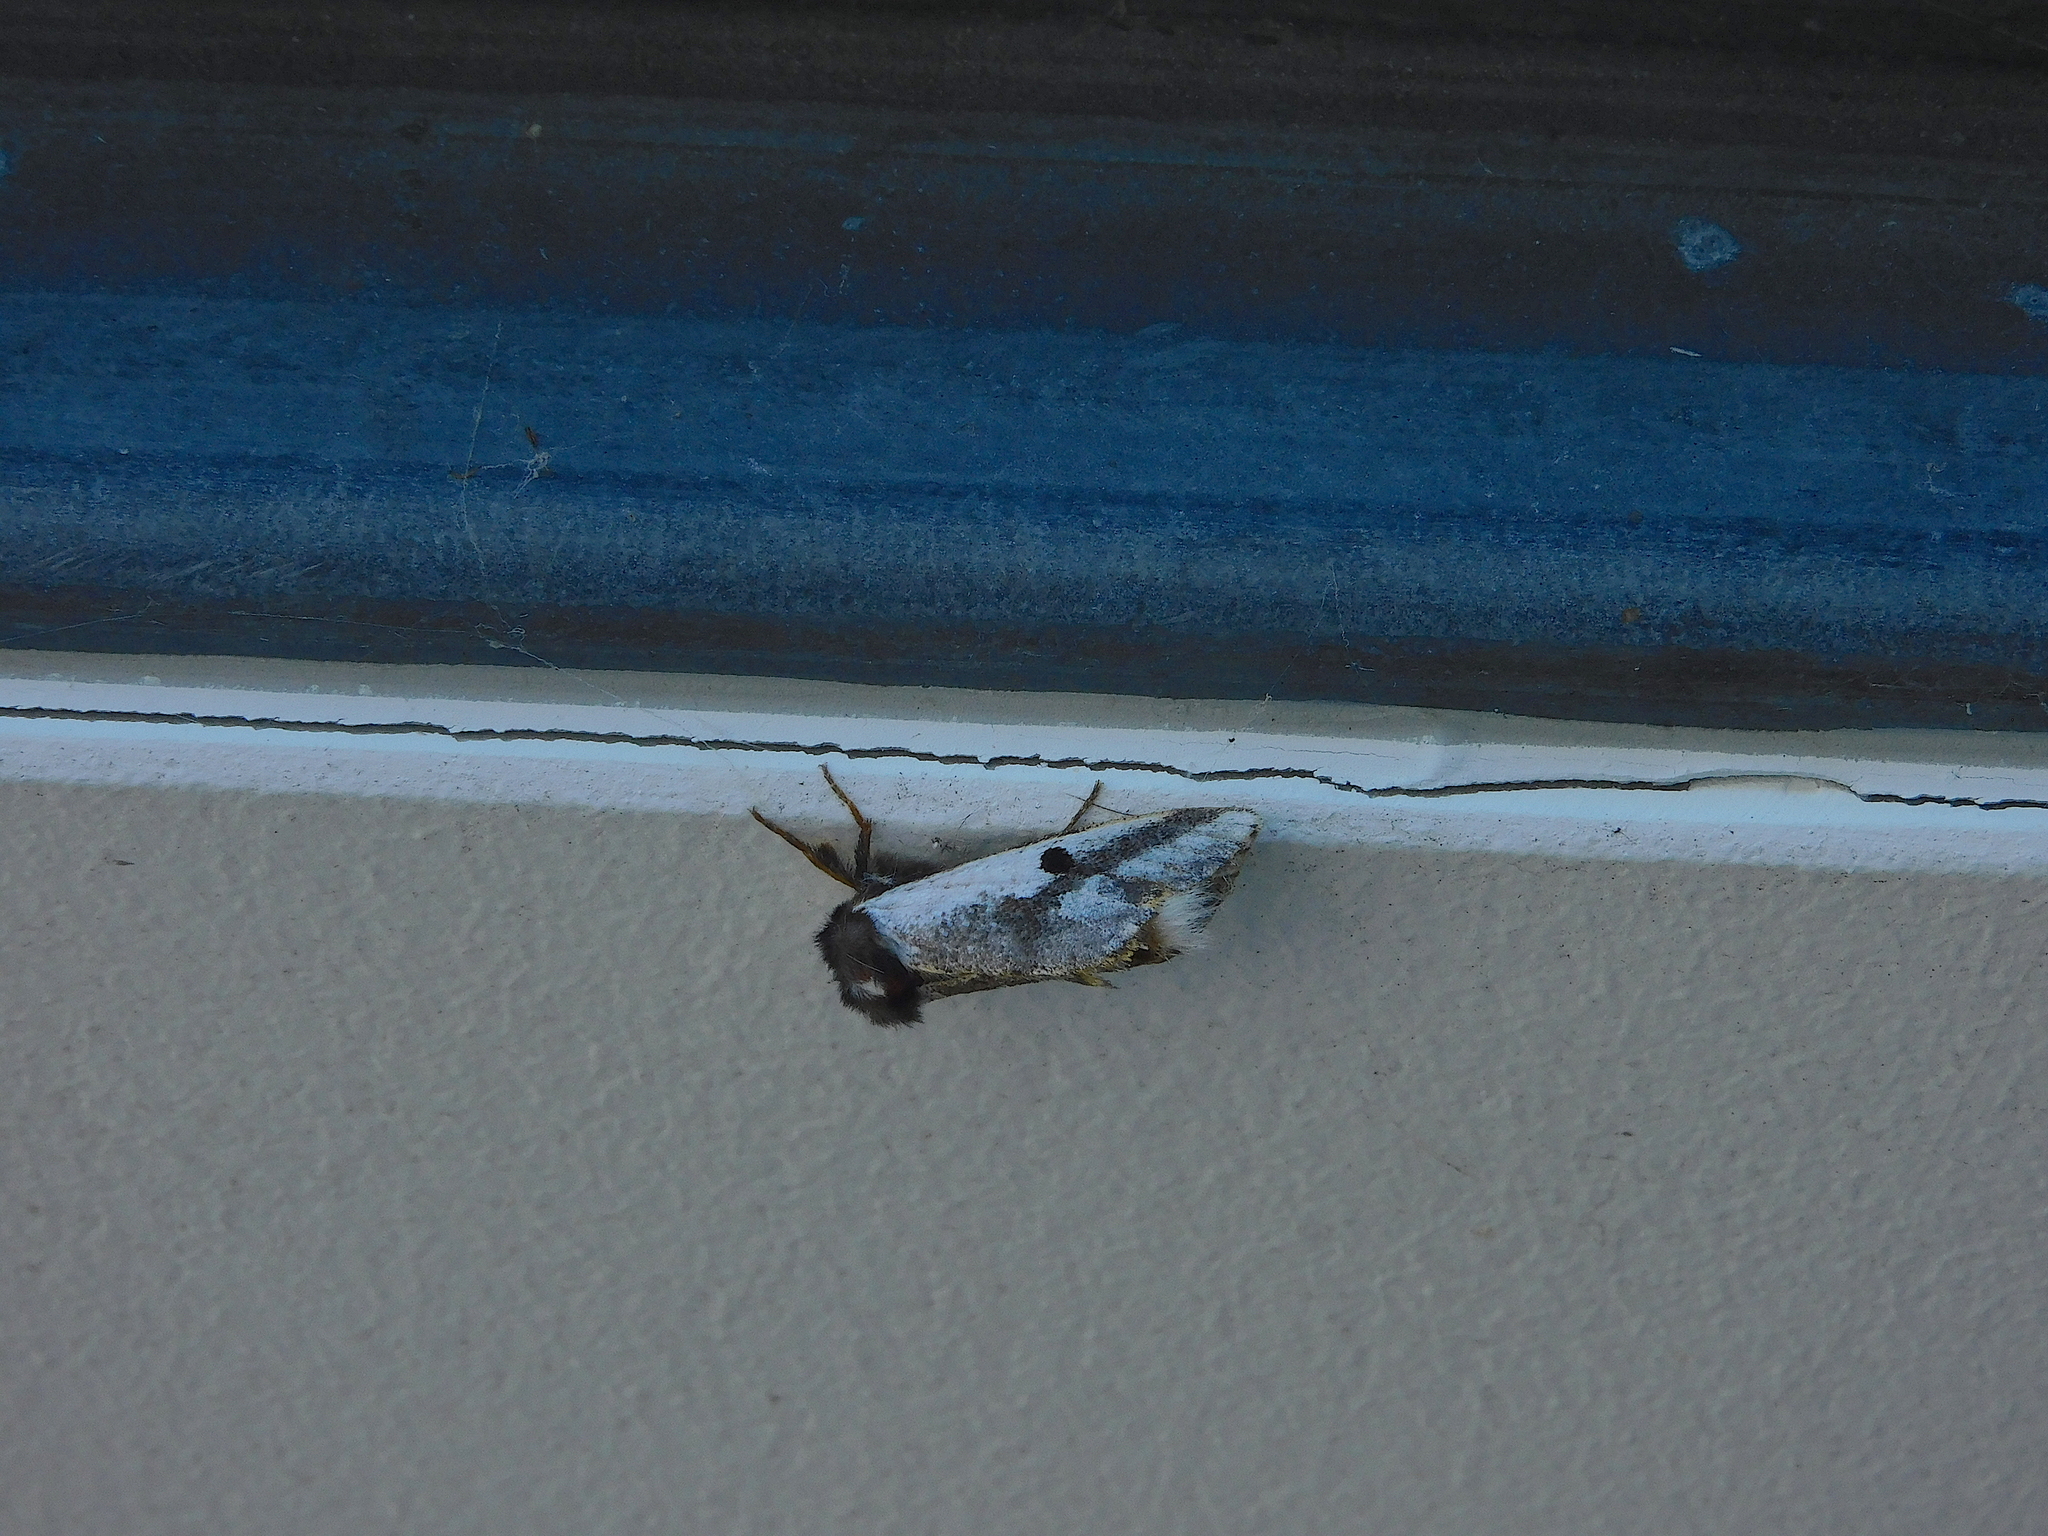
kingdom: Animalia
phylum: Arthropoda
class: Insecta
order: Lepidoptera
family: Notodontidae
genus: Epicoma
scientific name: Epicoma melanospila
